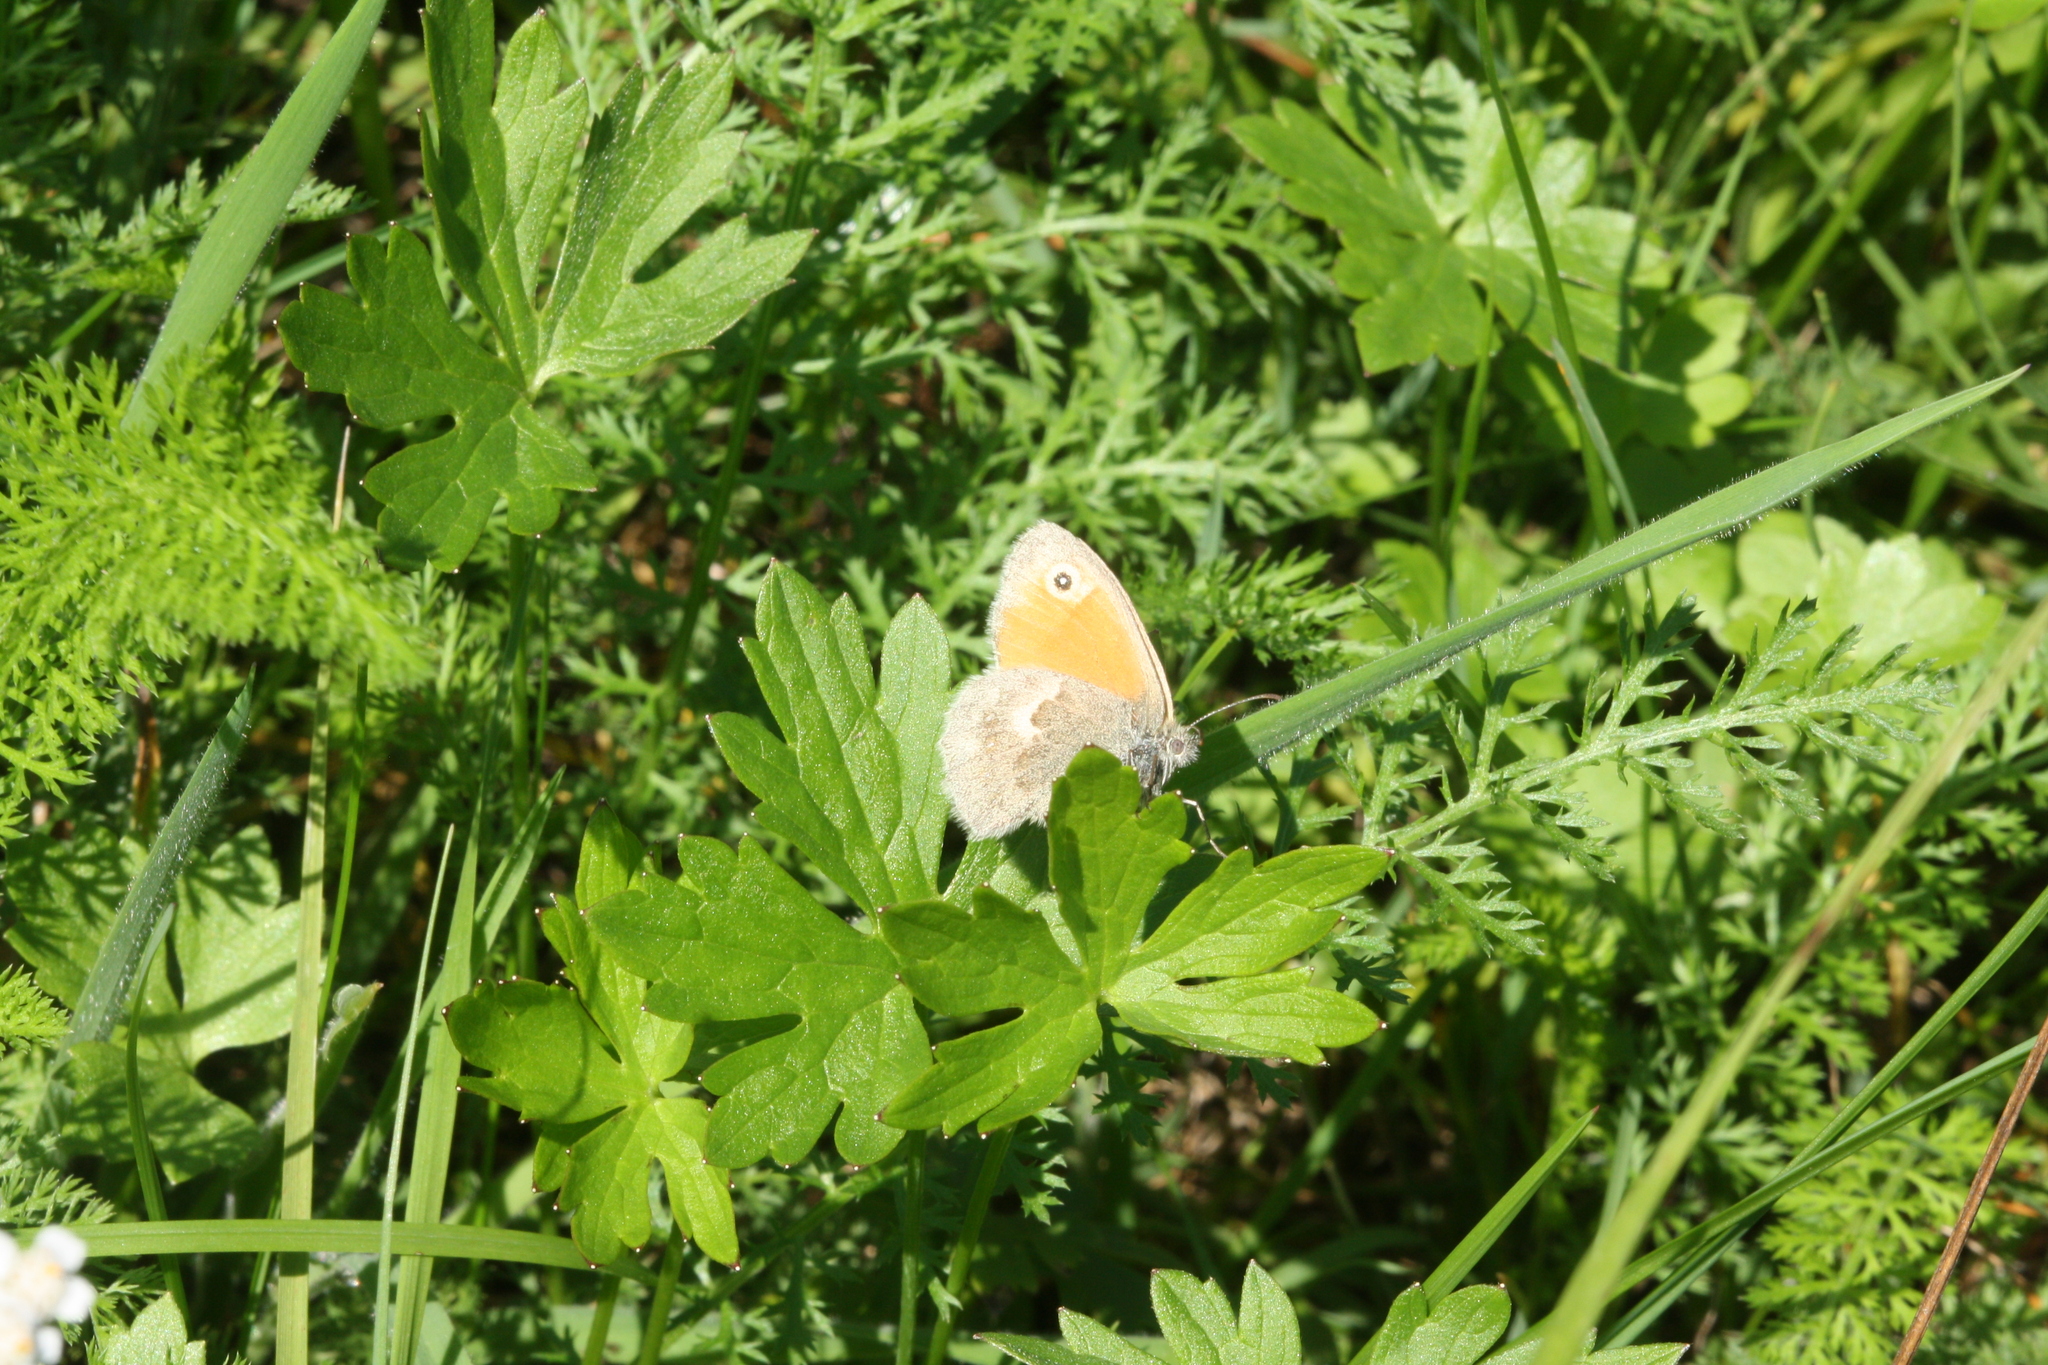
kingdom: Animalia
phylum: Arthropoda
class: Insecta
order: Lepidoptera
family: Nymphalidae
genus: Coenonympha
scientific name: Coenonympha pamphilus
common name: Small heath
